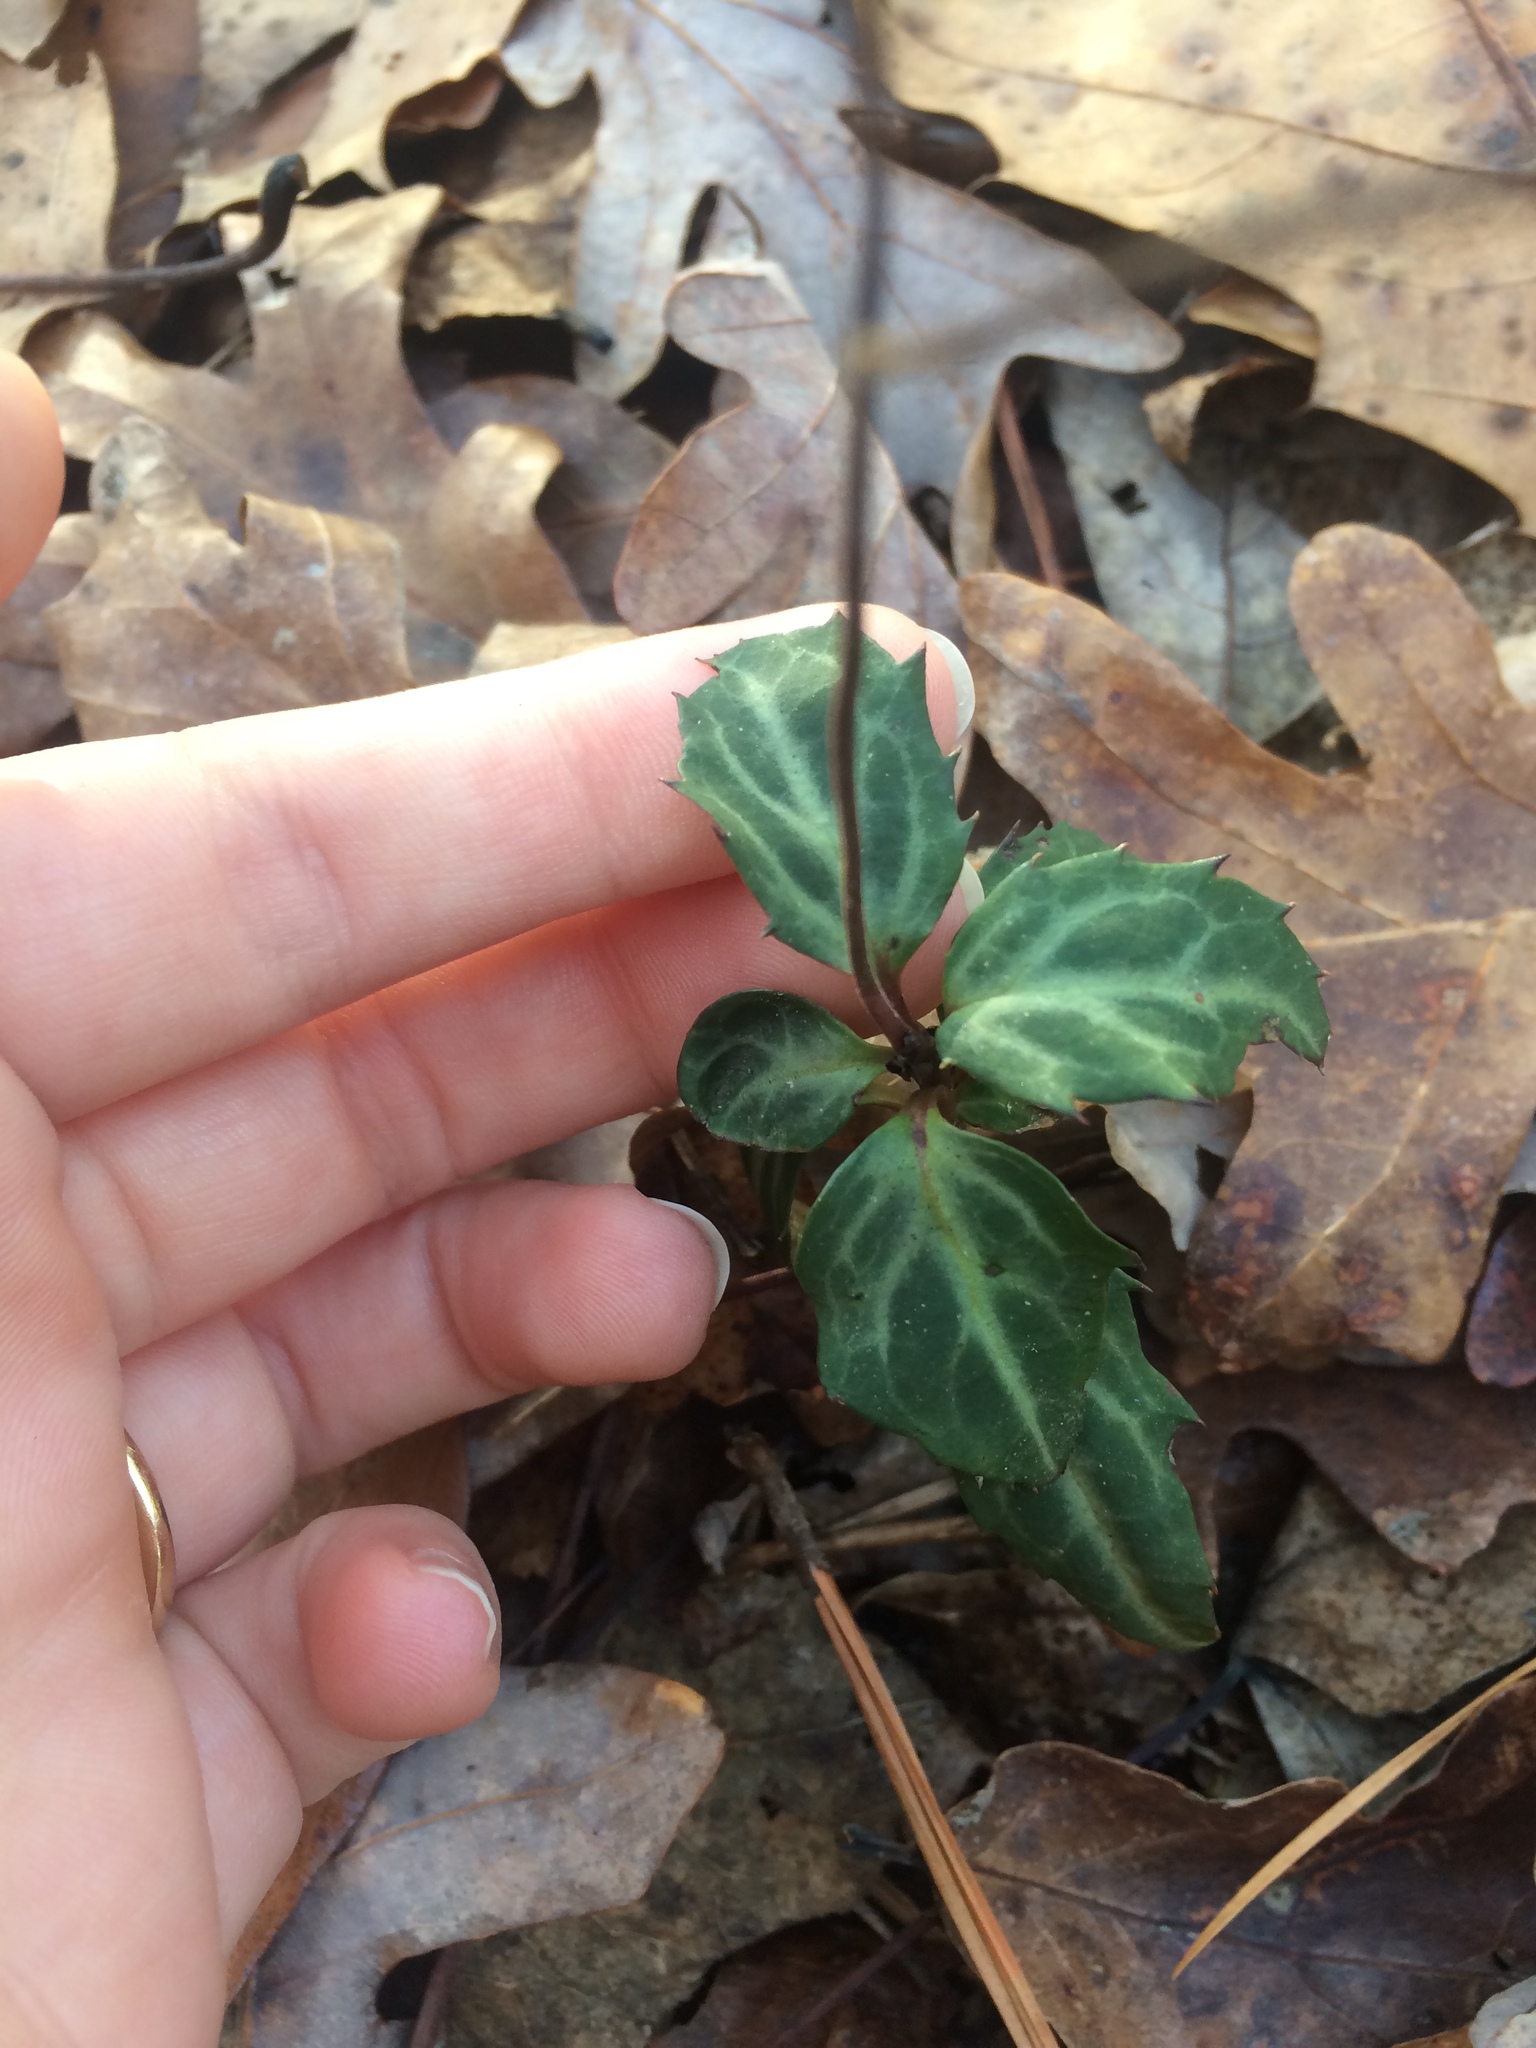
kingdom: Plantae
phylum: Tracheophyta
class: Magnoliopsida
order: Ericales
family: Ericaceae
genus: Chimaphila
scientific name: Chimaphila maculata
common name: Spotted pipsissewa
